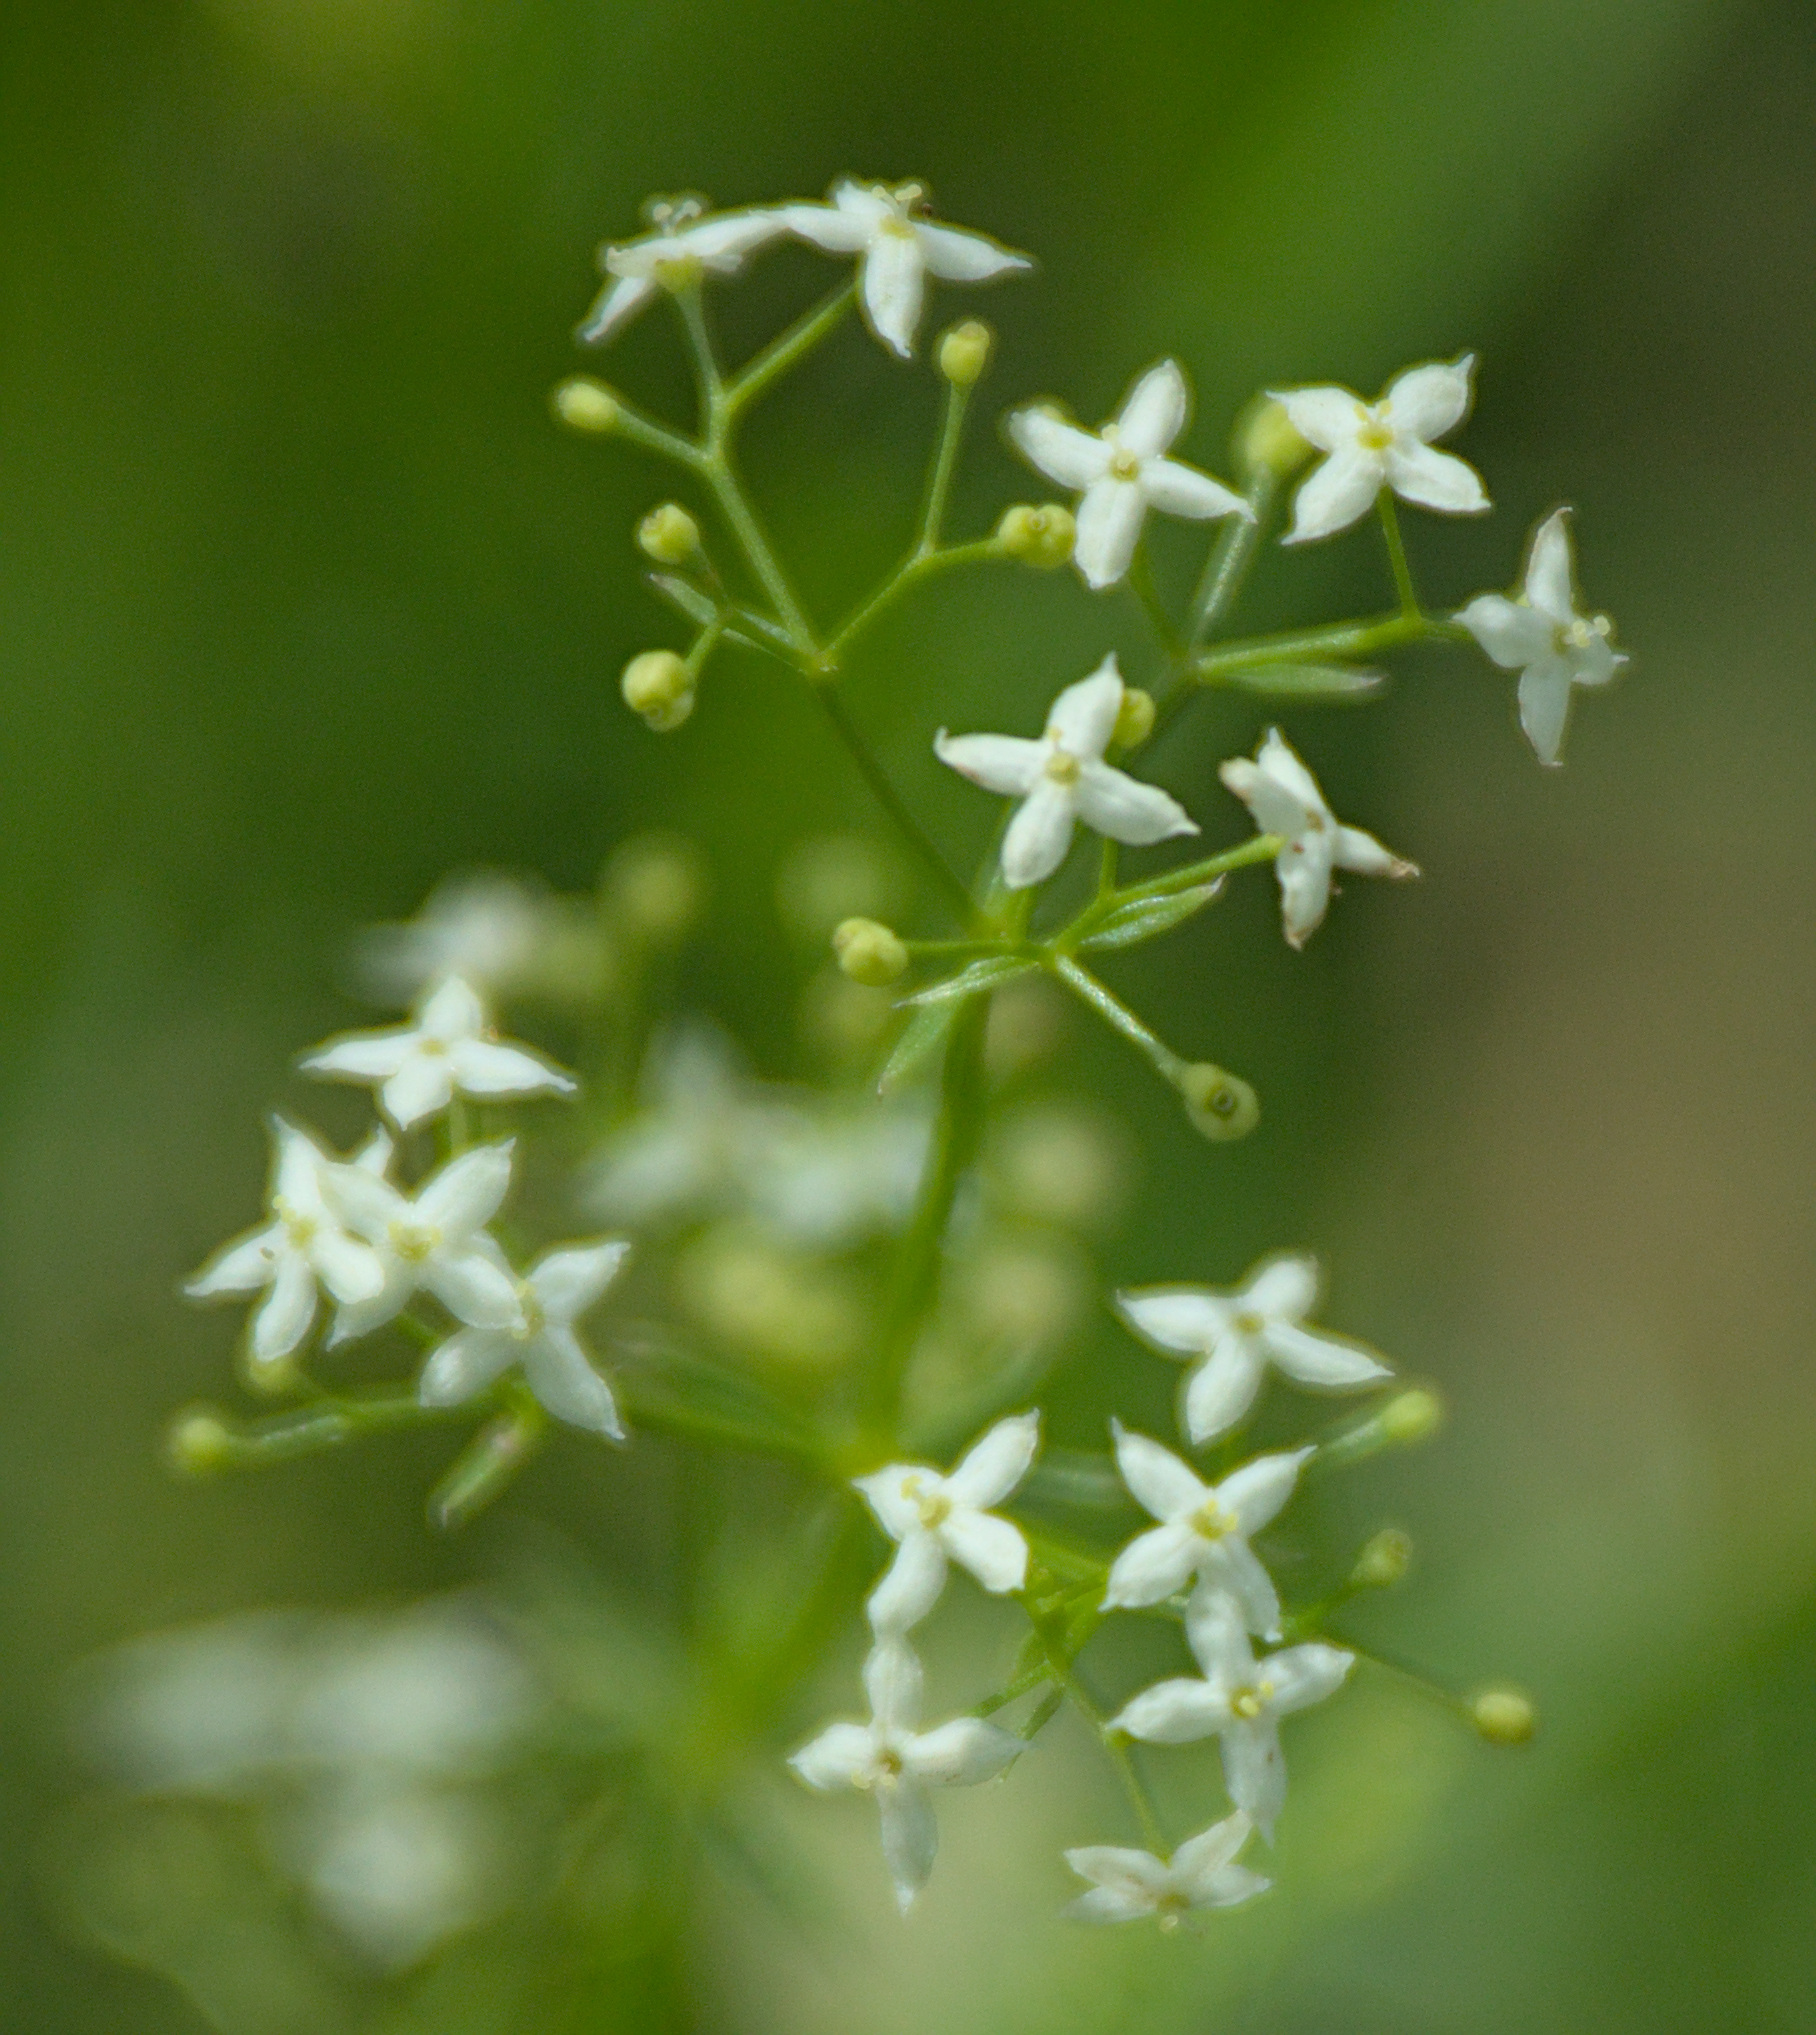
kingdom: Plantae
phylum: Tracheophyta
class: Magnoliopsida
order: Gentianales
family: Rubiaceae
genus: Galium
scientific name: Galium mollugo
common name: Hedge bedstraw
